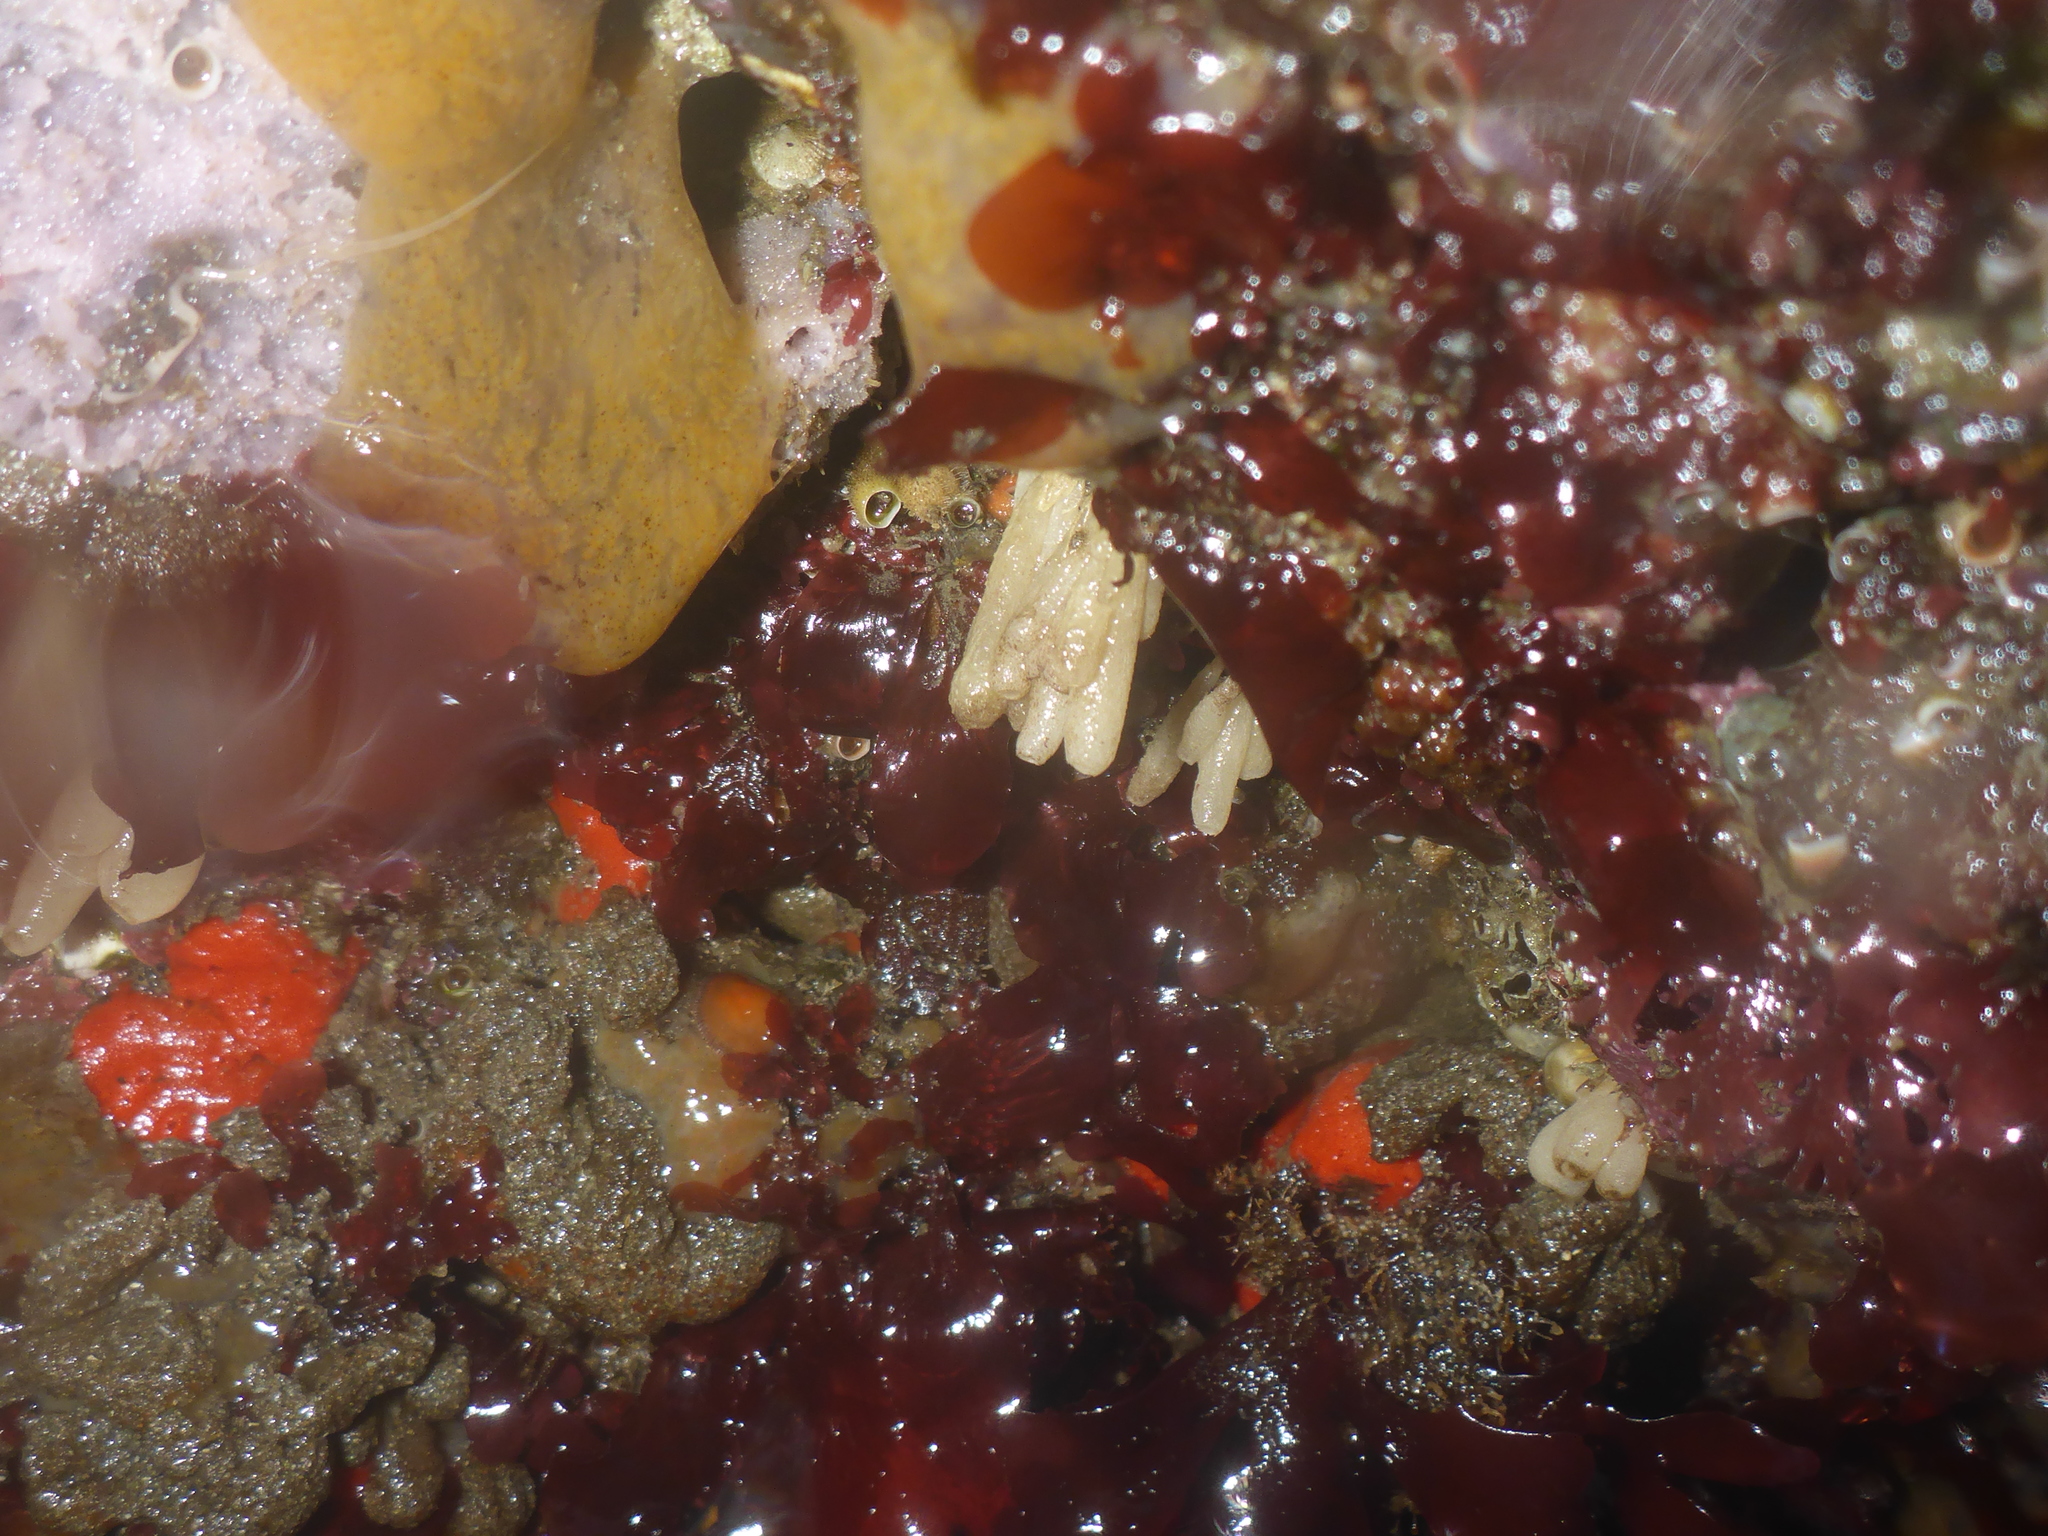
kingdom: Animalia
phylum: Porifera
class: Calcarea
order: Leucosolenida
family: Amphoriscidae
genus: Leucilla
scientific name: Leucilla nuttingi
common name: Nutting's sponge
